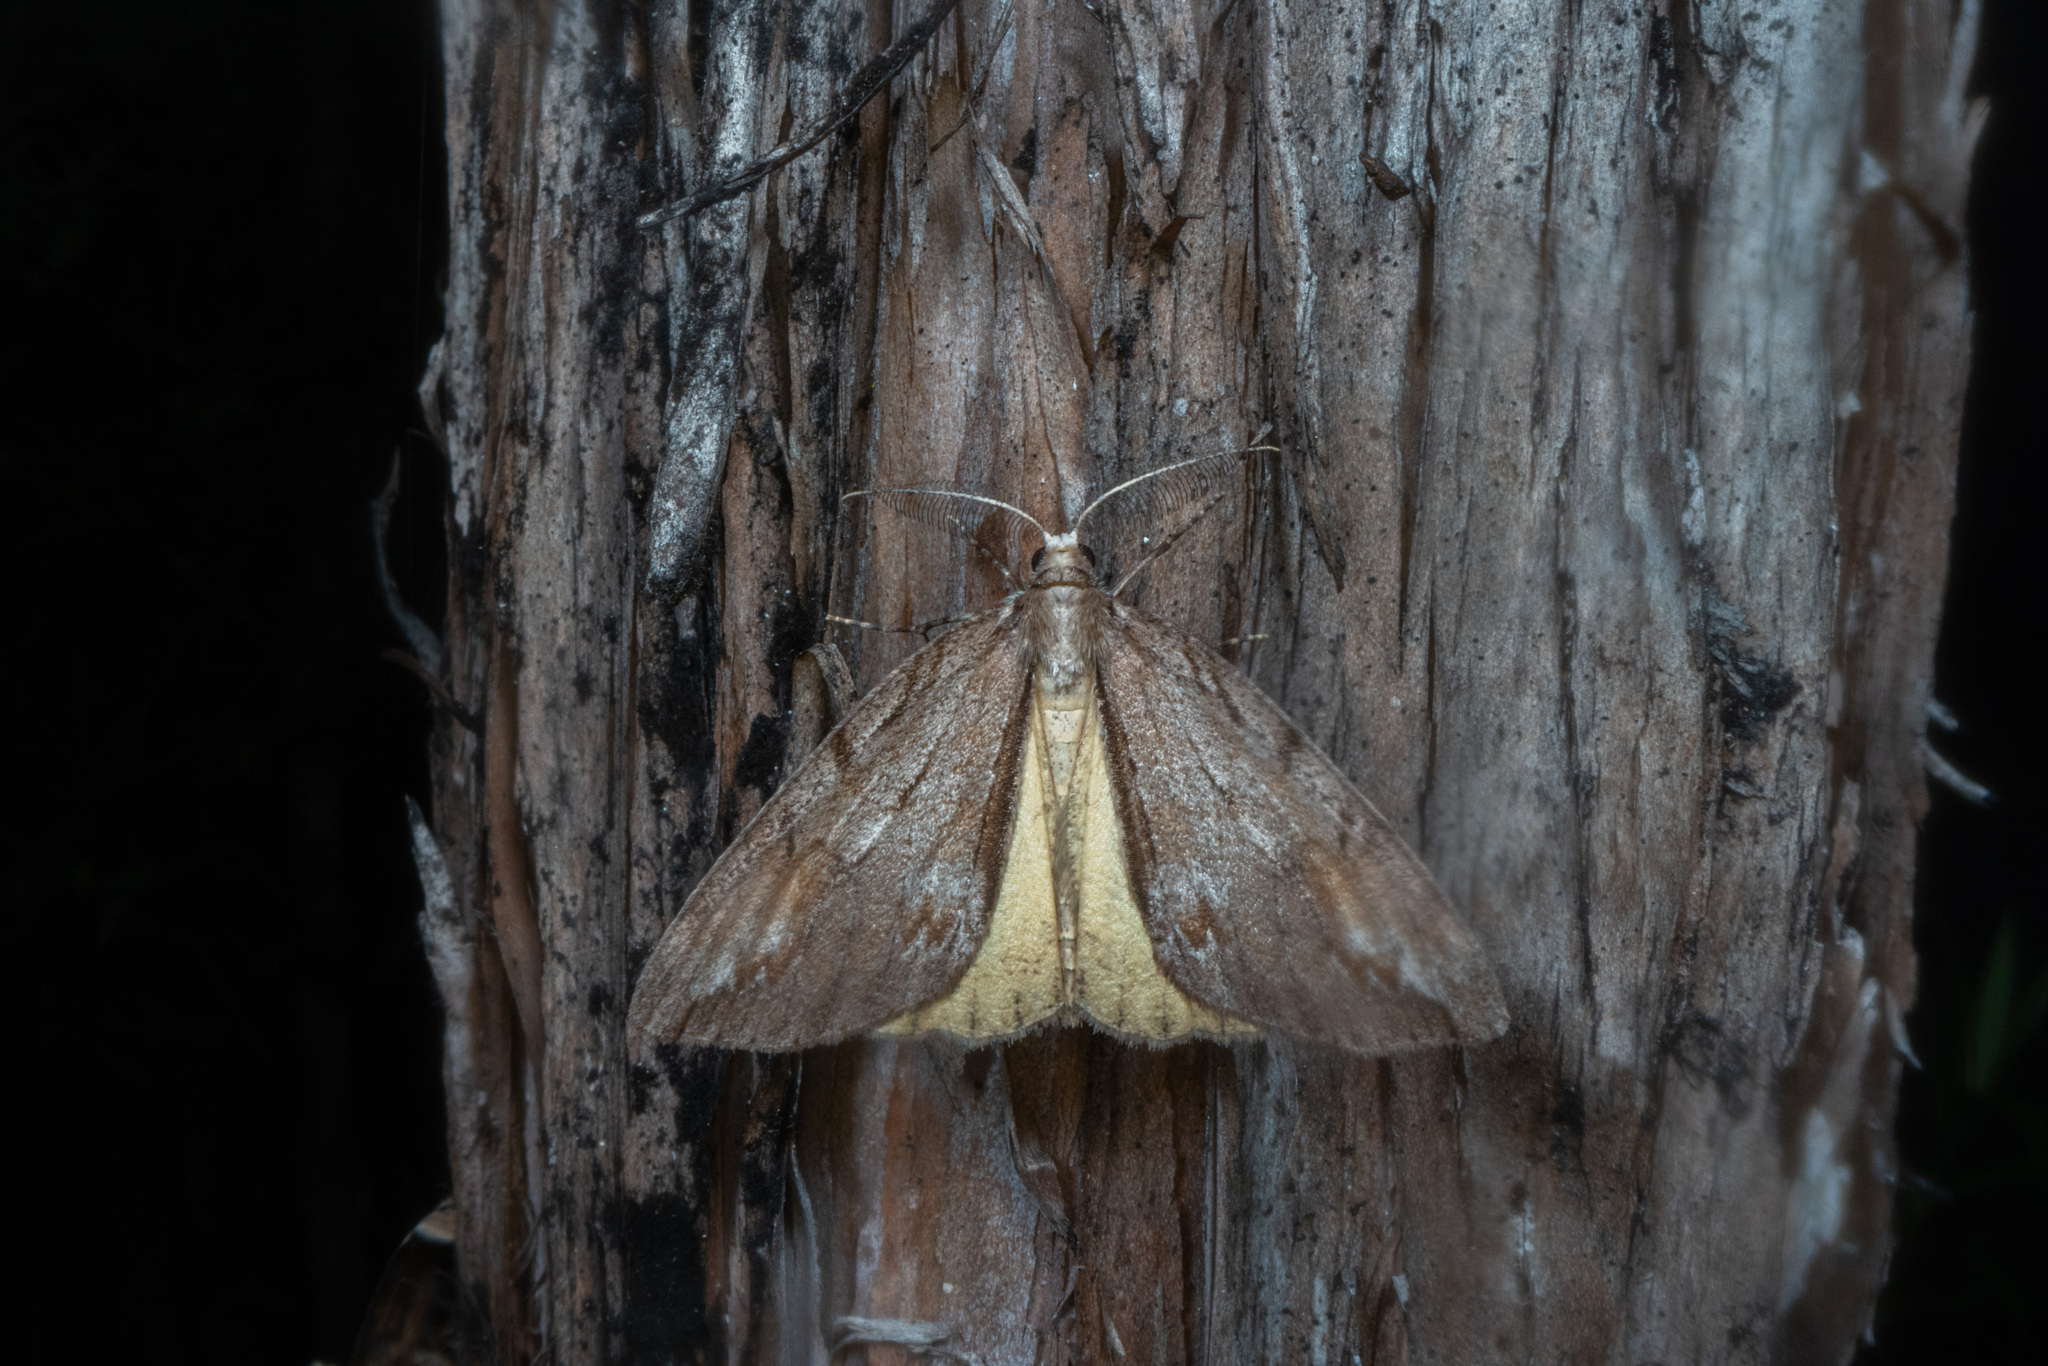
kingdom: Animalia
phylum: Arthropoda
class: Insecta
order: Lepidoptera
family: Geometridae
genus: Pseudocoremia
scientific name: Pseudocoremia lupinata
